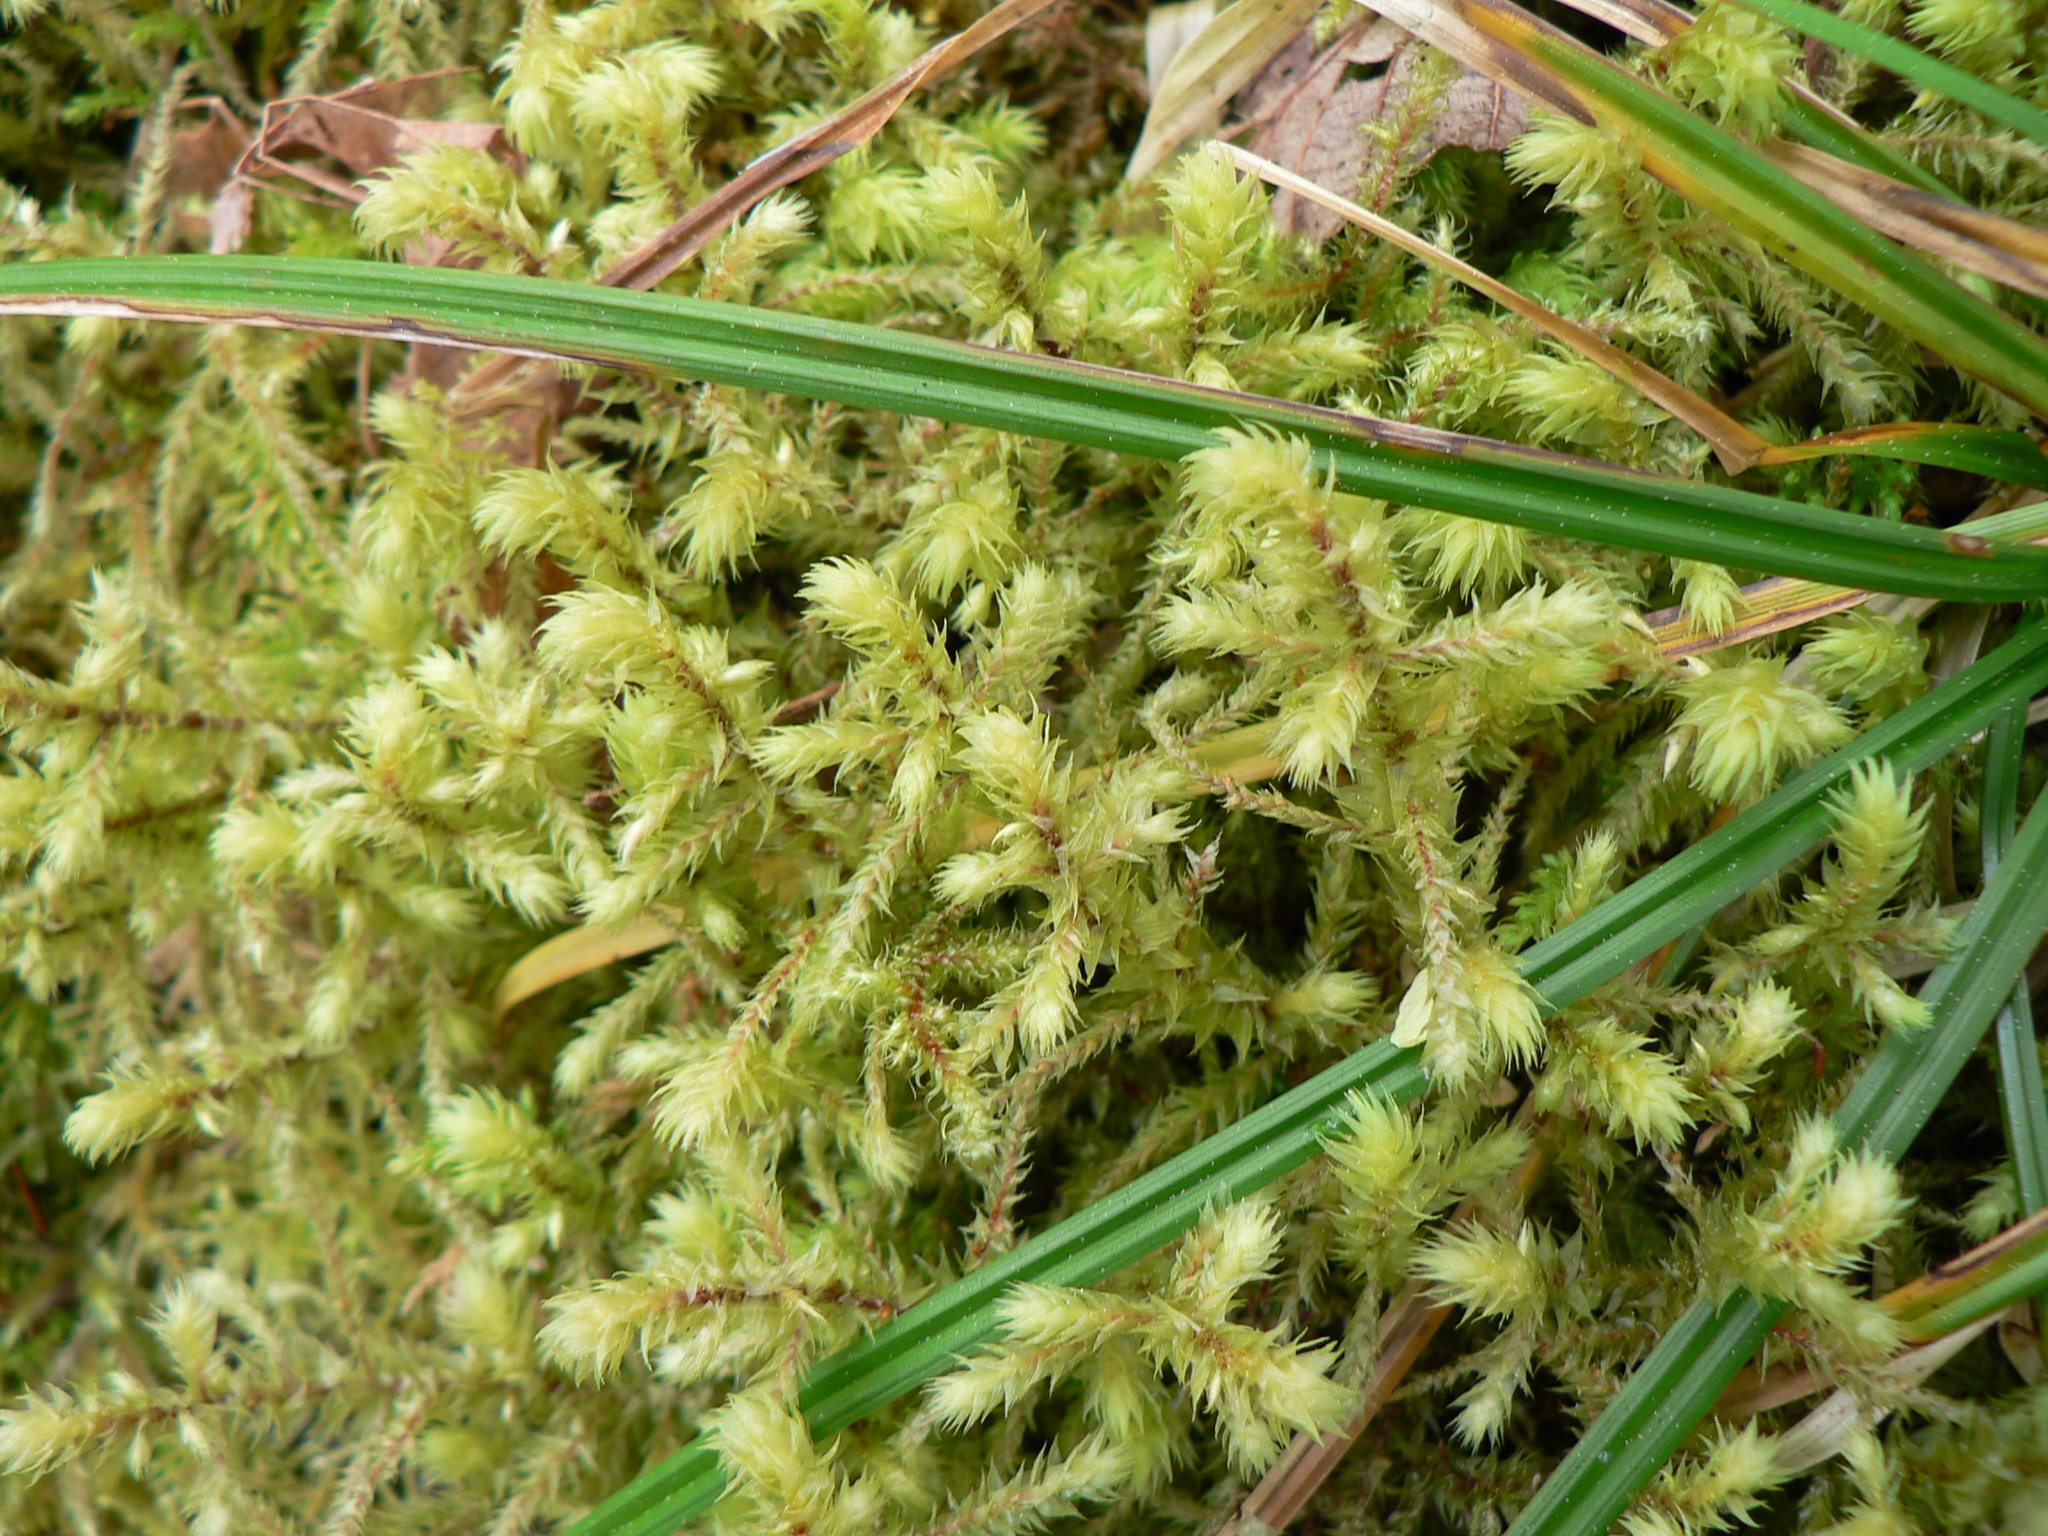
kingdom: Plantae
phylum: Bryophyta
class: Bryopsida
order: Hypnales
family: Hylocomiaceae
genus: Hylocomiadelphus
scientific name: Hylocomiadelphus triquetrus
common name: Rough goose neck moss
